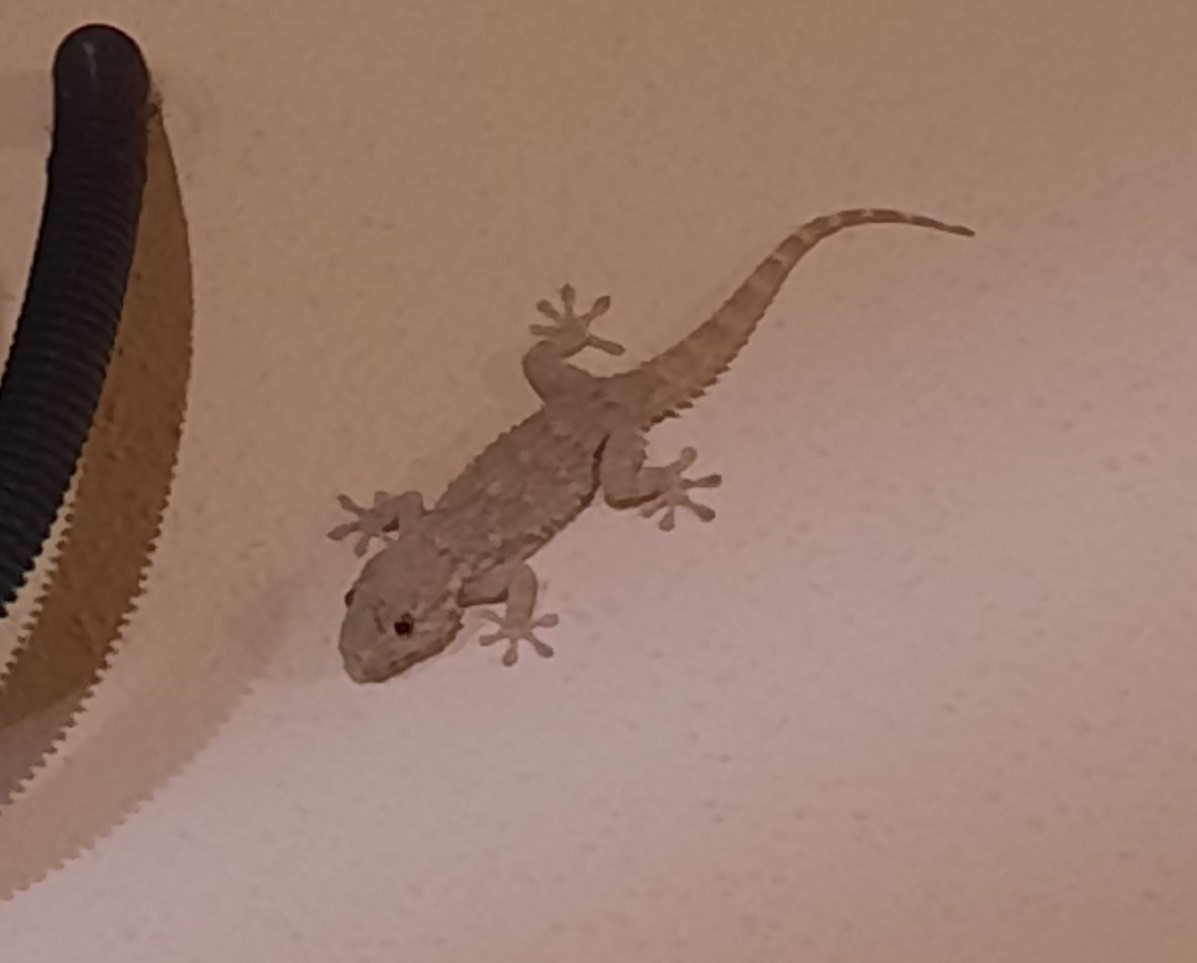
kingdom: Animalia
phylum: Chordata
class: Squamata
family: Phyllodactylidae
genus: Tarentola
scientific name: Tarentola mauritanica
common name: Moorish gecko
